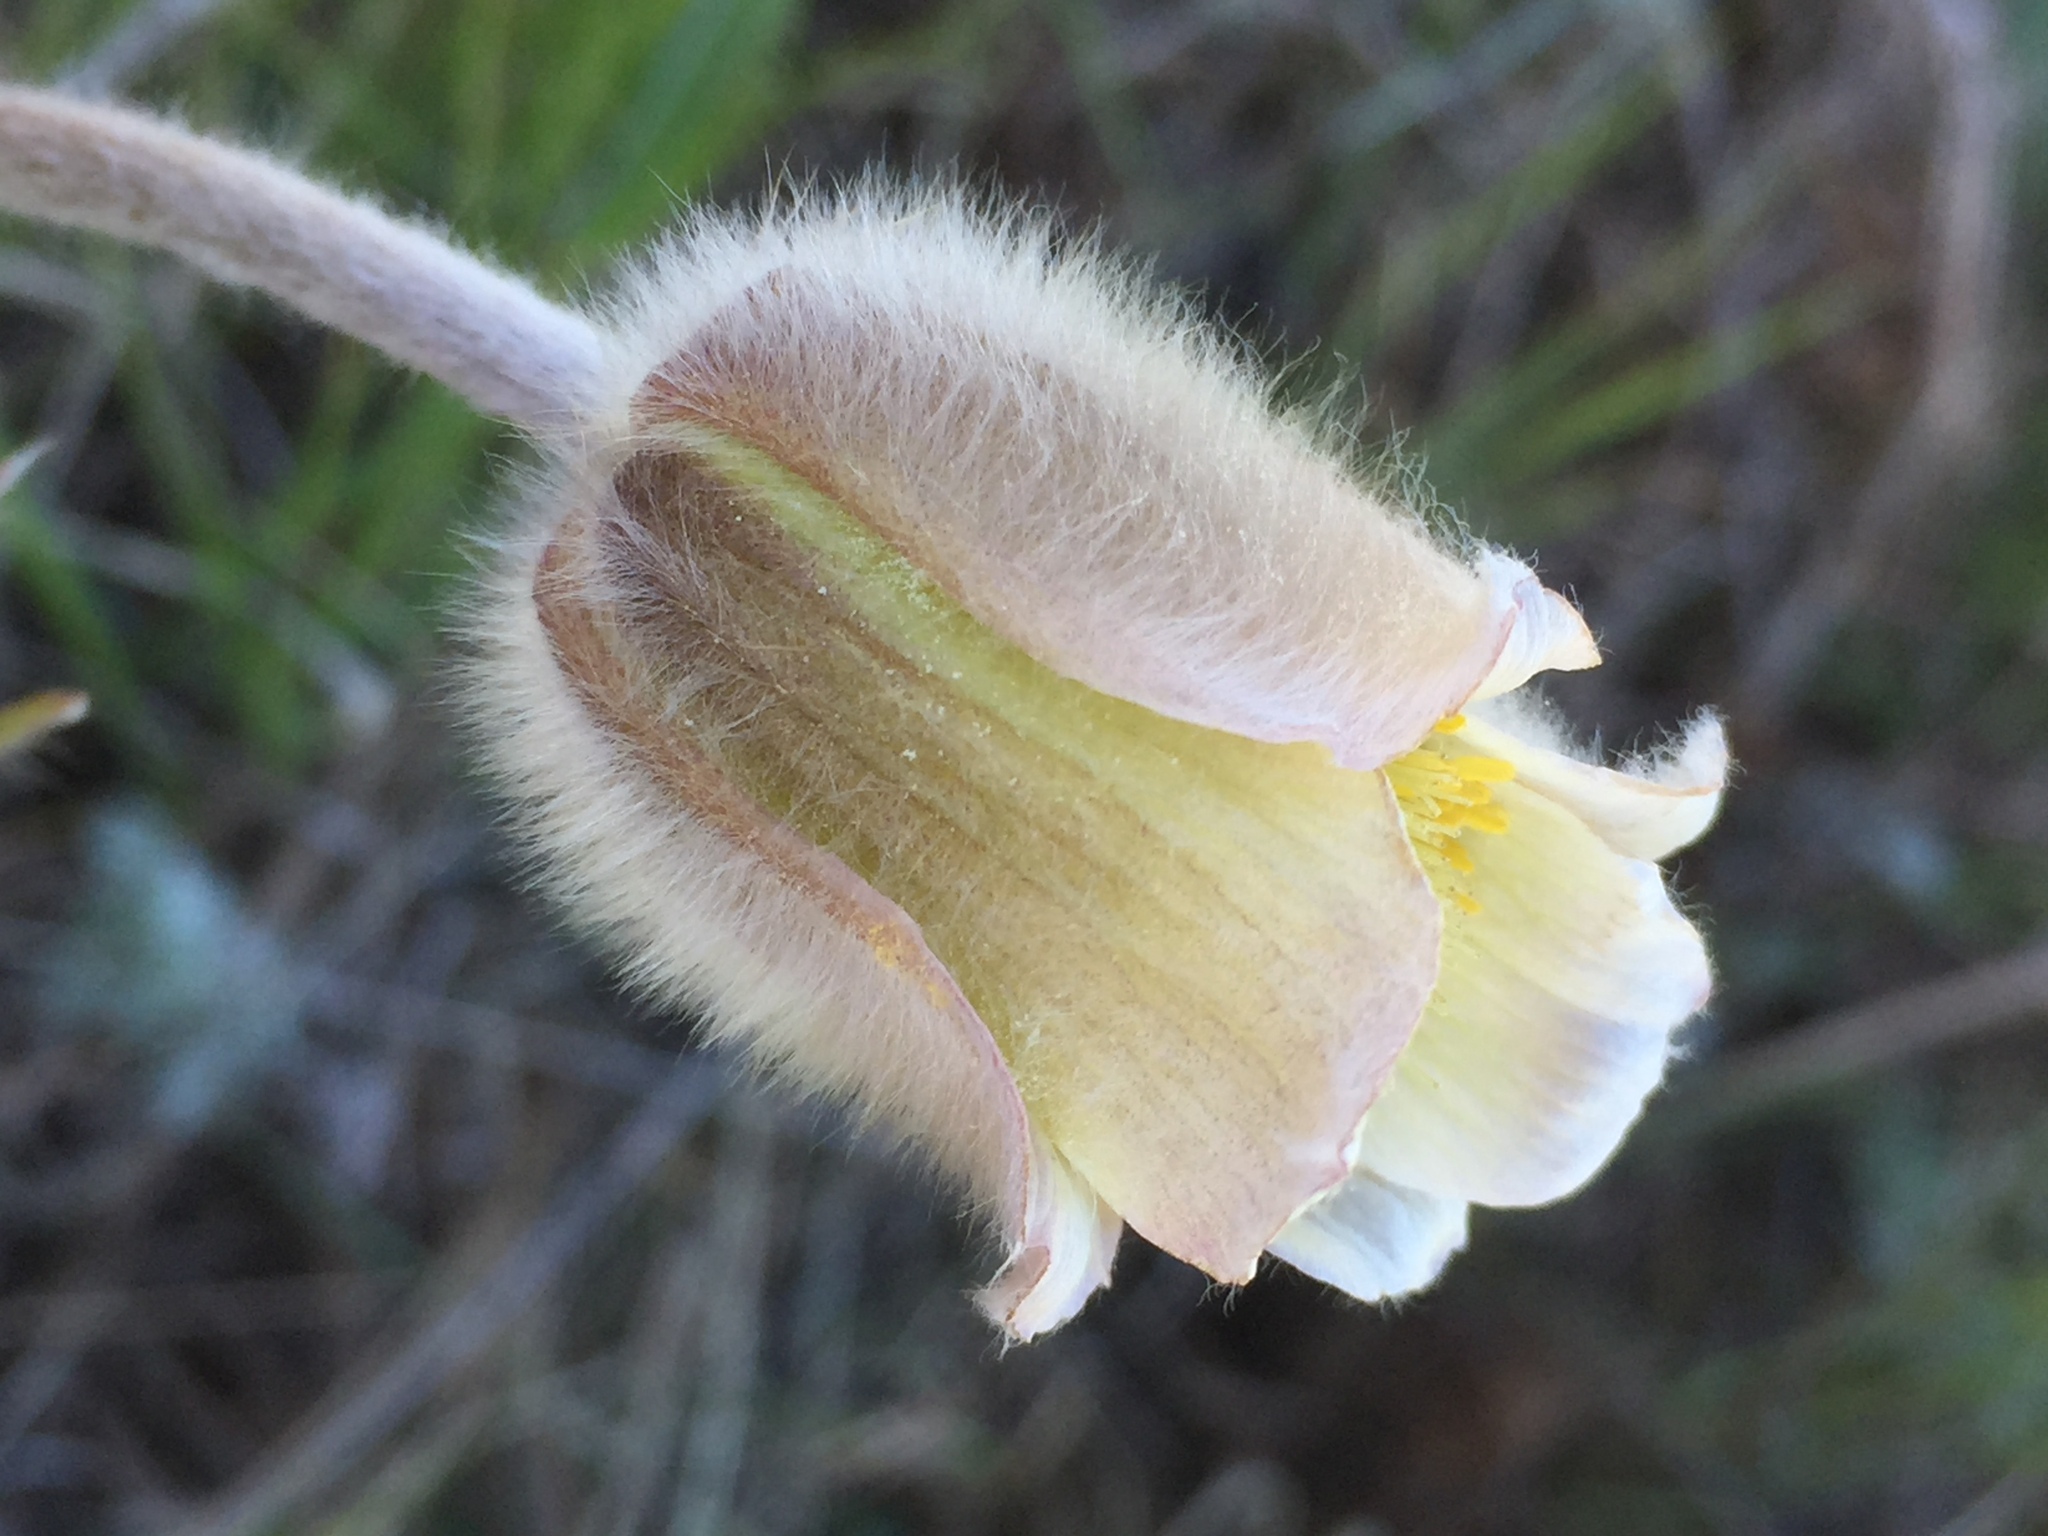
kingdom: Plantae
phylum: Tracheophyta
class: Magnoliopsida
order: Ranunculales
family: Ranunculaceae
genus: Pulsatilla
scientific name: Pulsatilla pratensis
